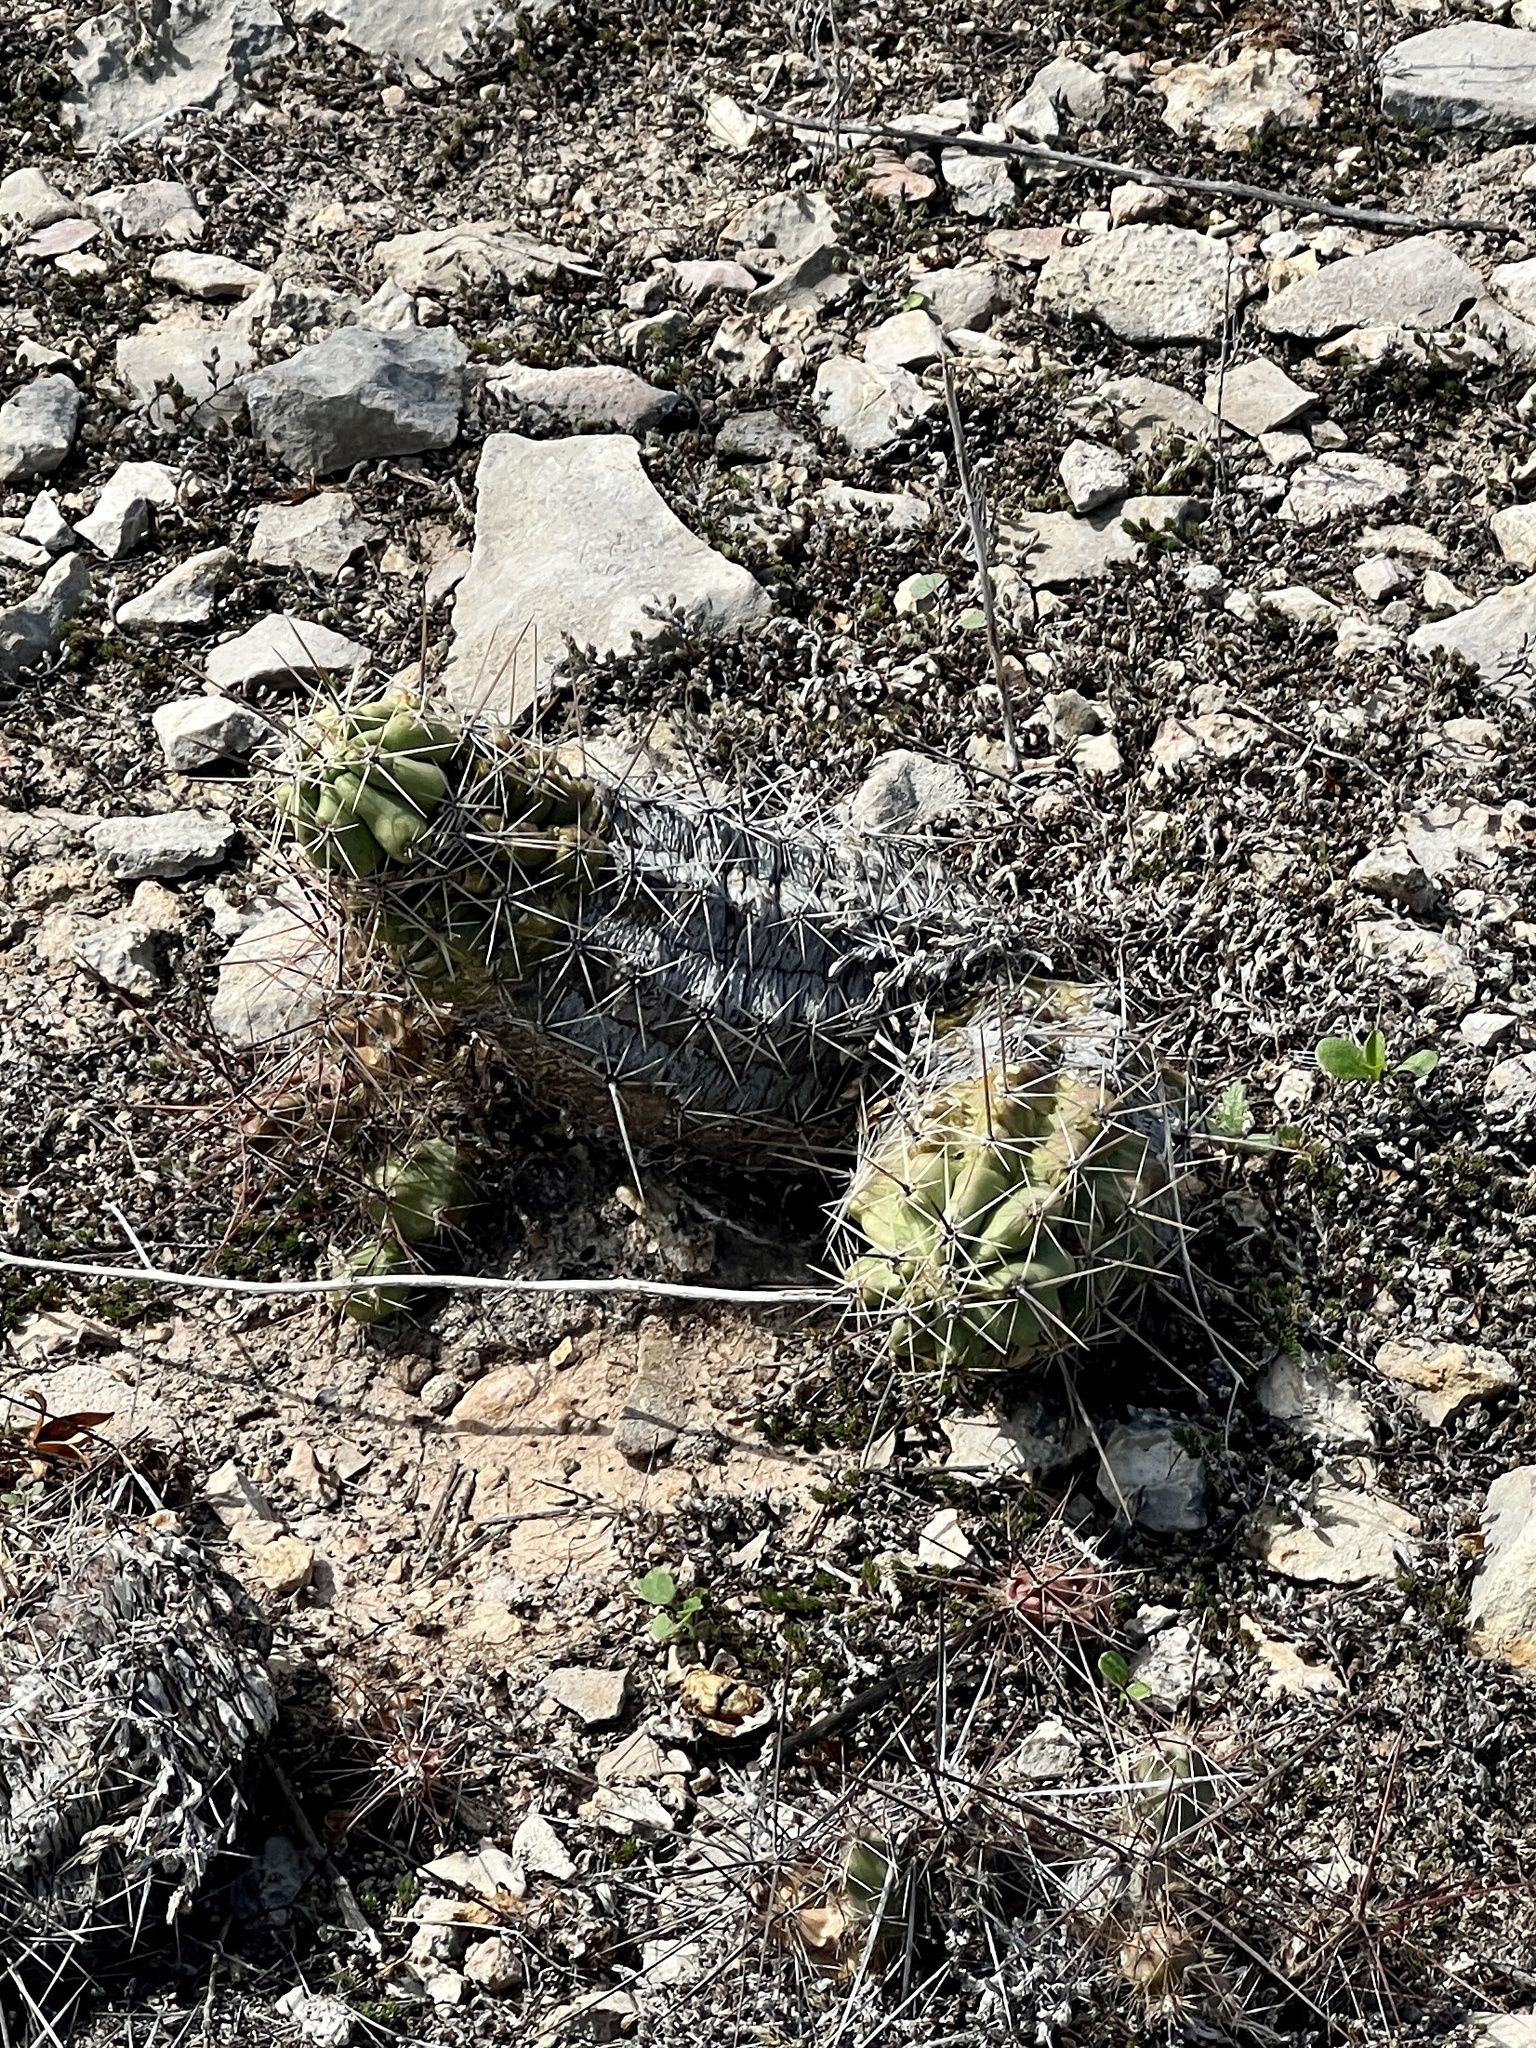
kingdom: Plantae
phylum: Tracheophyta
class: Magnoliopsida
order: Caryophyllales
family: Cactaceae
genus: Echinocereus
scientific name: Echinocereus enneacanthus
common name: Pitaya
